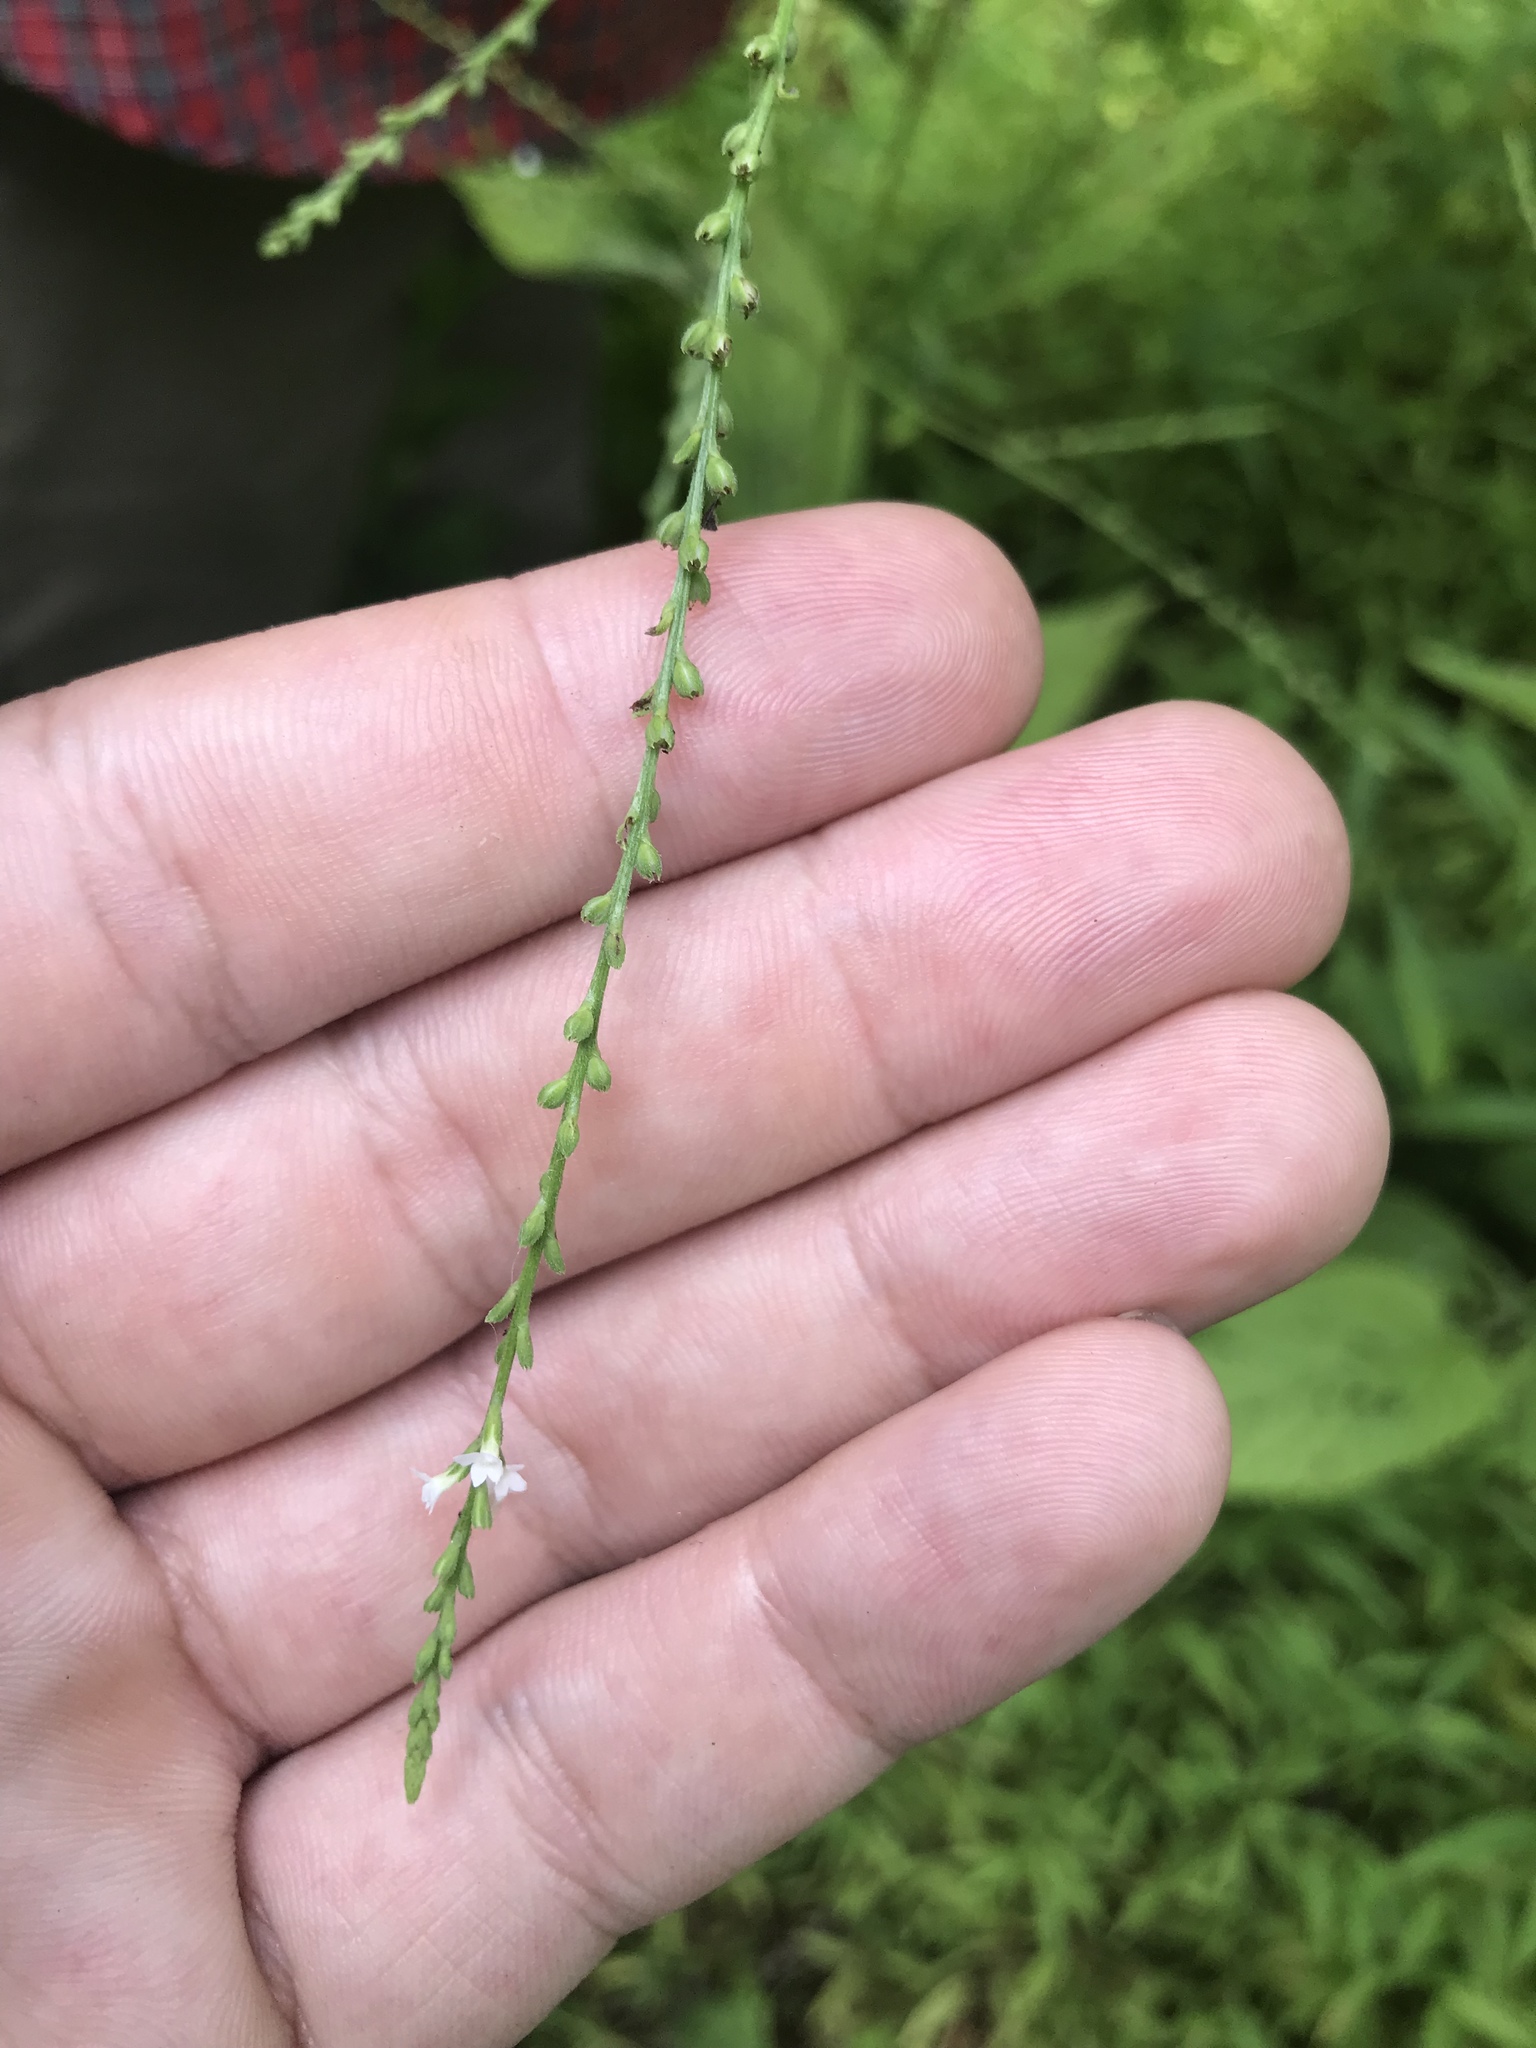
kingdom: Plantae
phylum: Tracheophyta
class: Magnoliopsida
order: Lamiales
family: Verbenaceae
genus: Verbena
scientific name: Verbena urticifolia
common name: Nettle-leaved vervain
